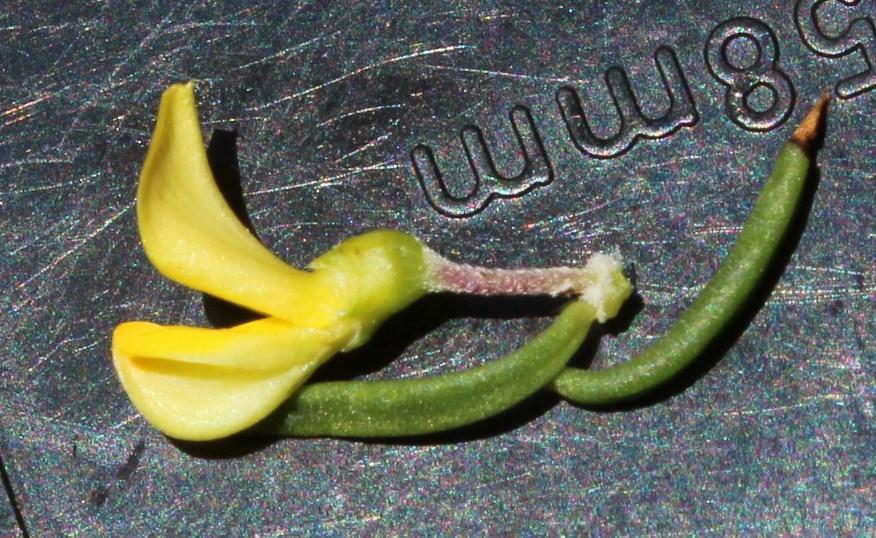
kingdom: Plantae
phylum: Tracheophyta
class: Magnoliopsida
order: Fabales
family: Fabaceae
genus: Aspalathus
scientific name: Aspalathus mundiana
